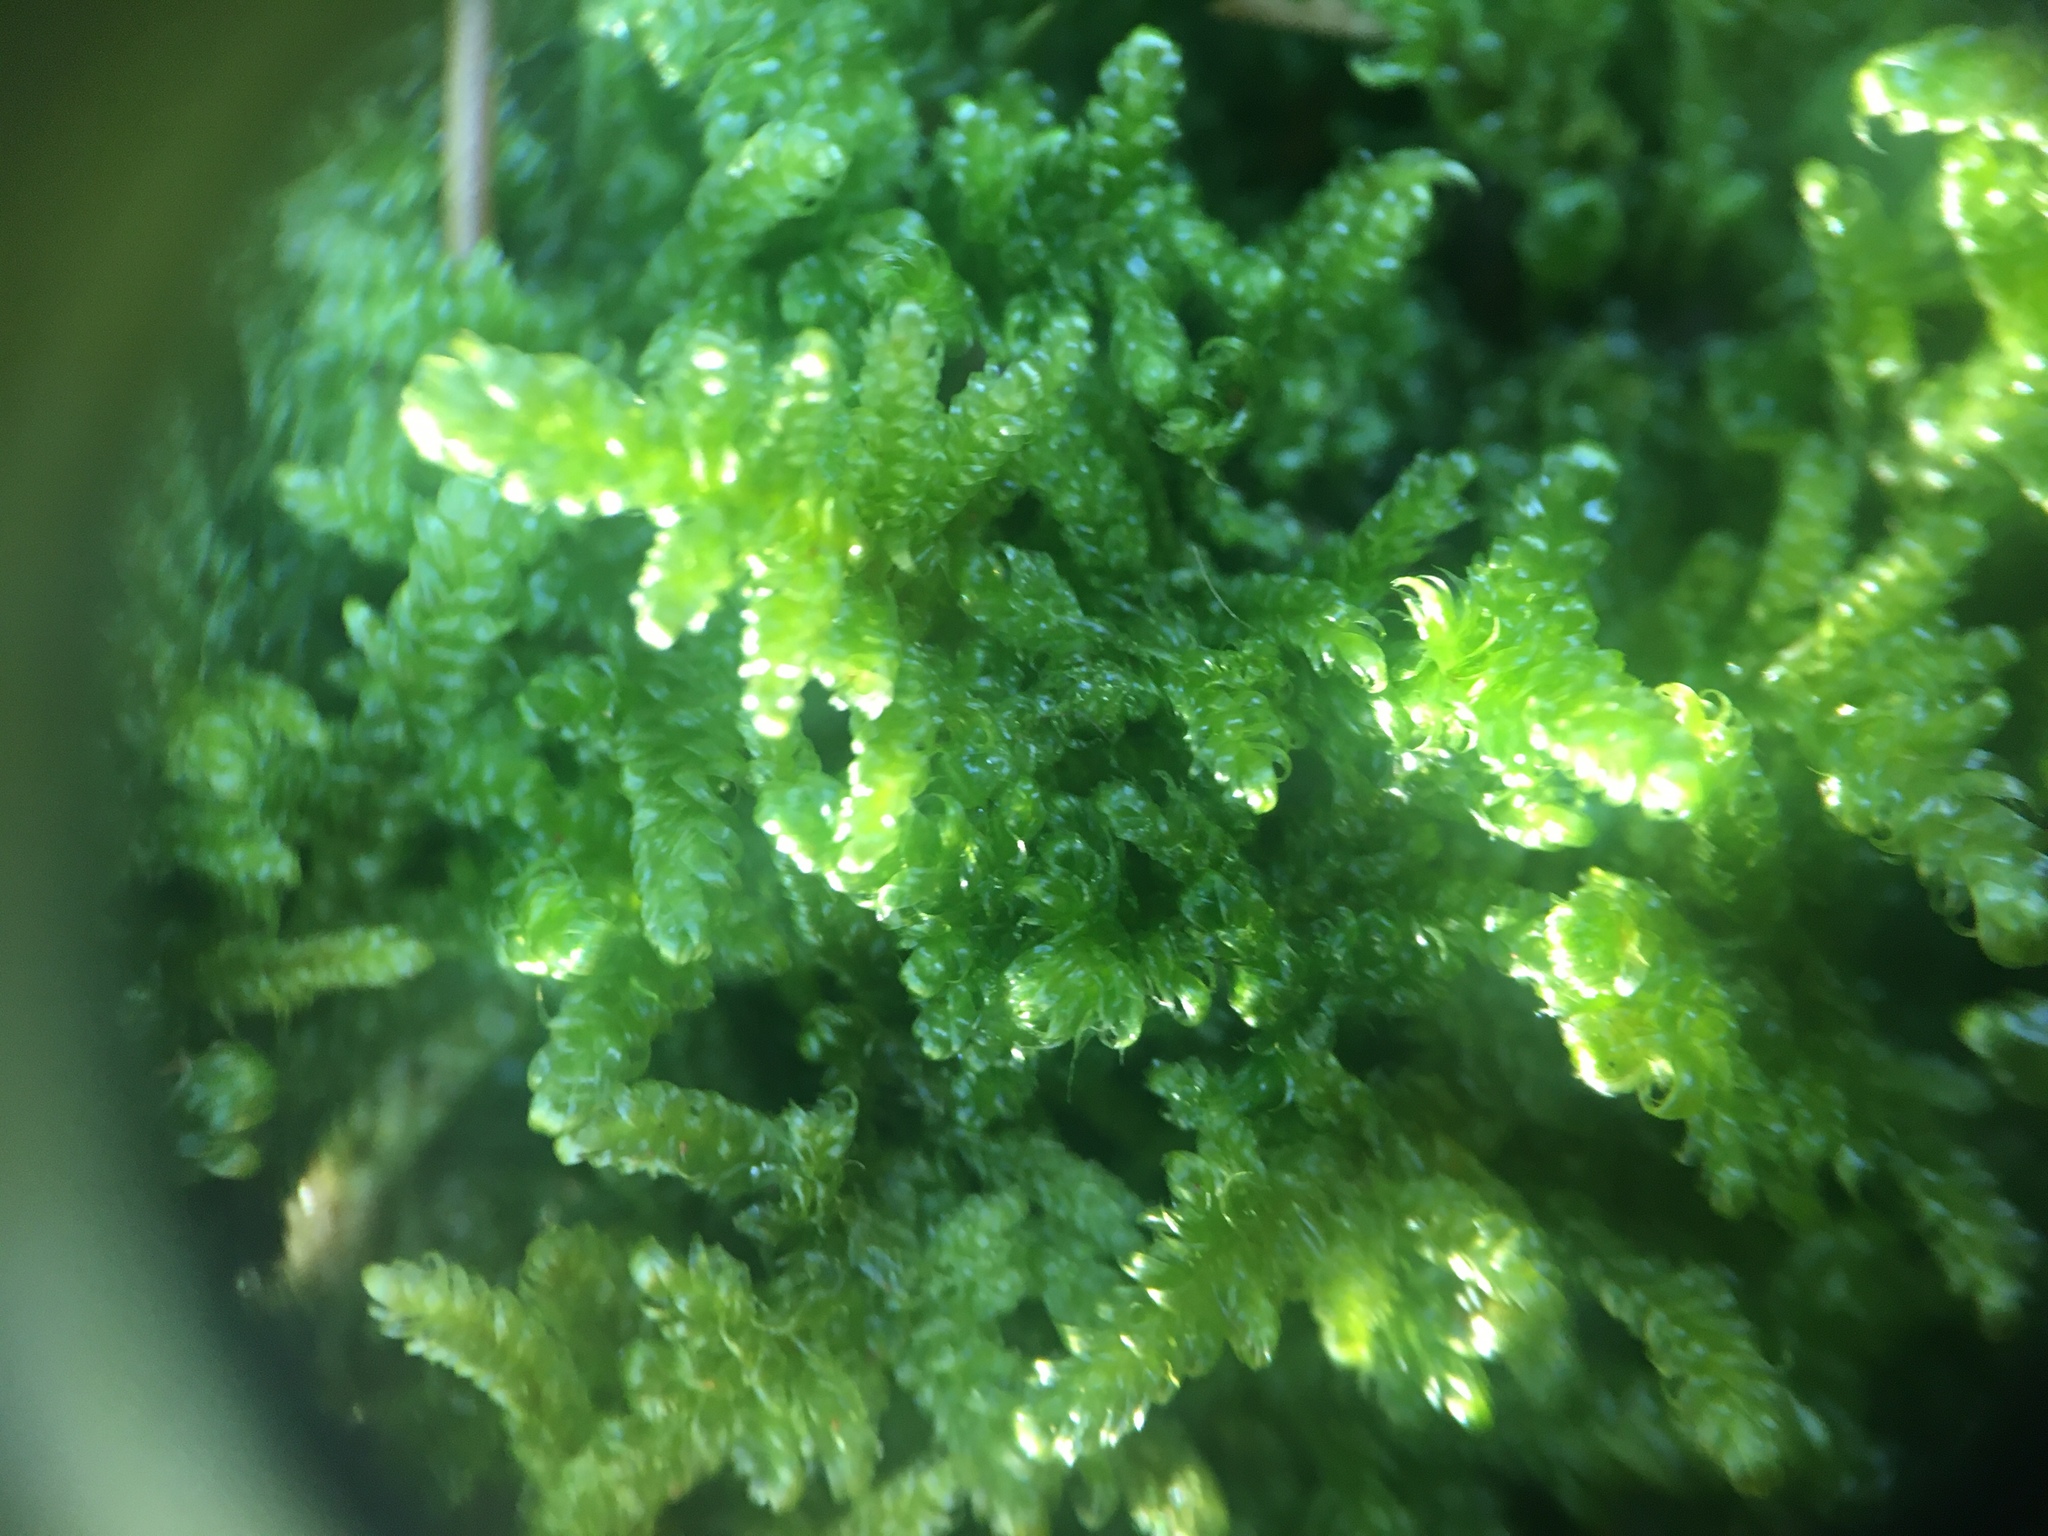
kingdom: Plantae
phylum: Bryophyta
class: Bryopsida
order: Hypnales
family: Callicladiaceae
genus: Callicladium
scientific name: Callicladium imponens
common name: Brocade moss
